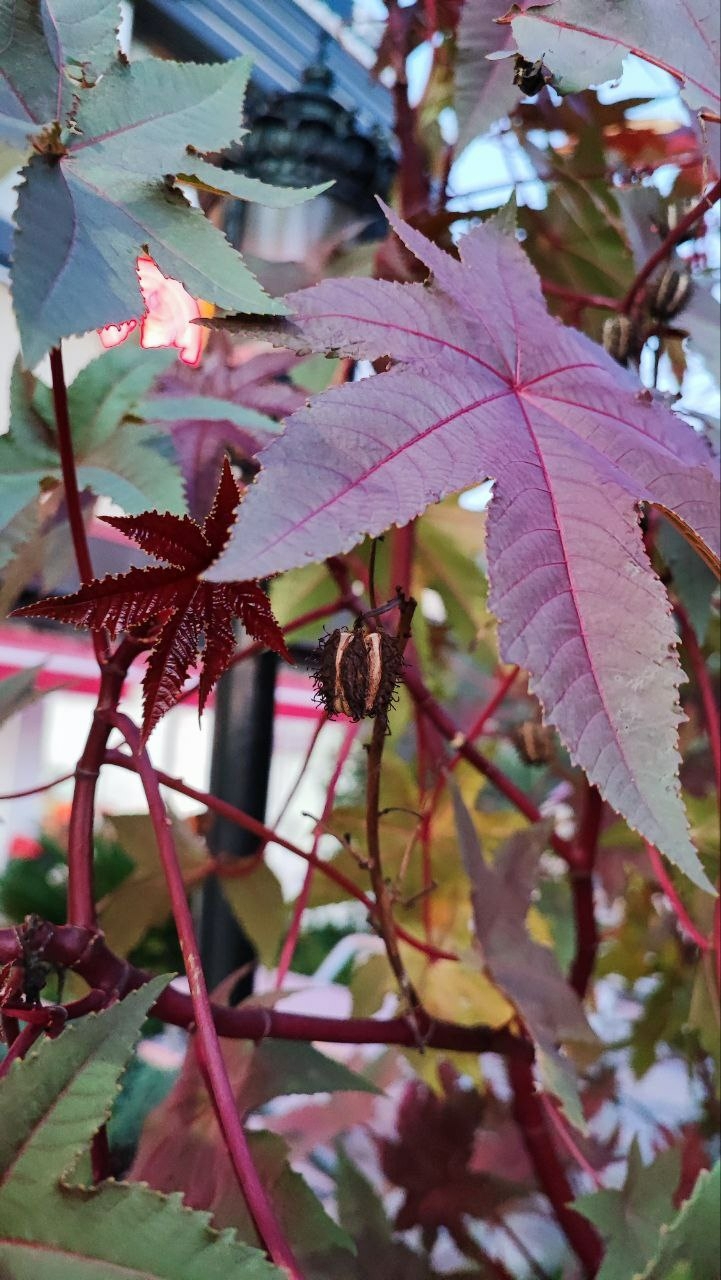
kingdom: Plantae
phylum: Tracheophyta
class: Magnoliopsida
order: Malpighiales
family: Euphorbiaceae
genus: Ricinus
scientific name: Ricinus communis
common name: Castor-oil-plant
